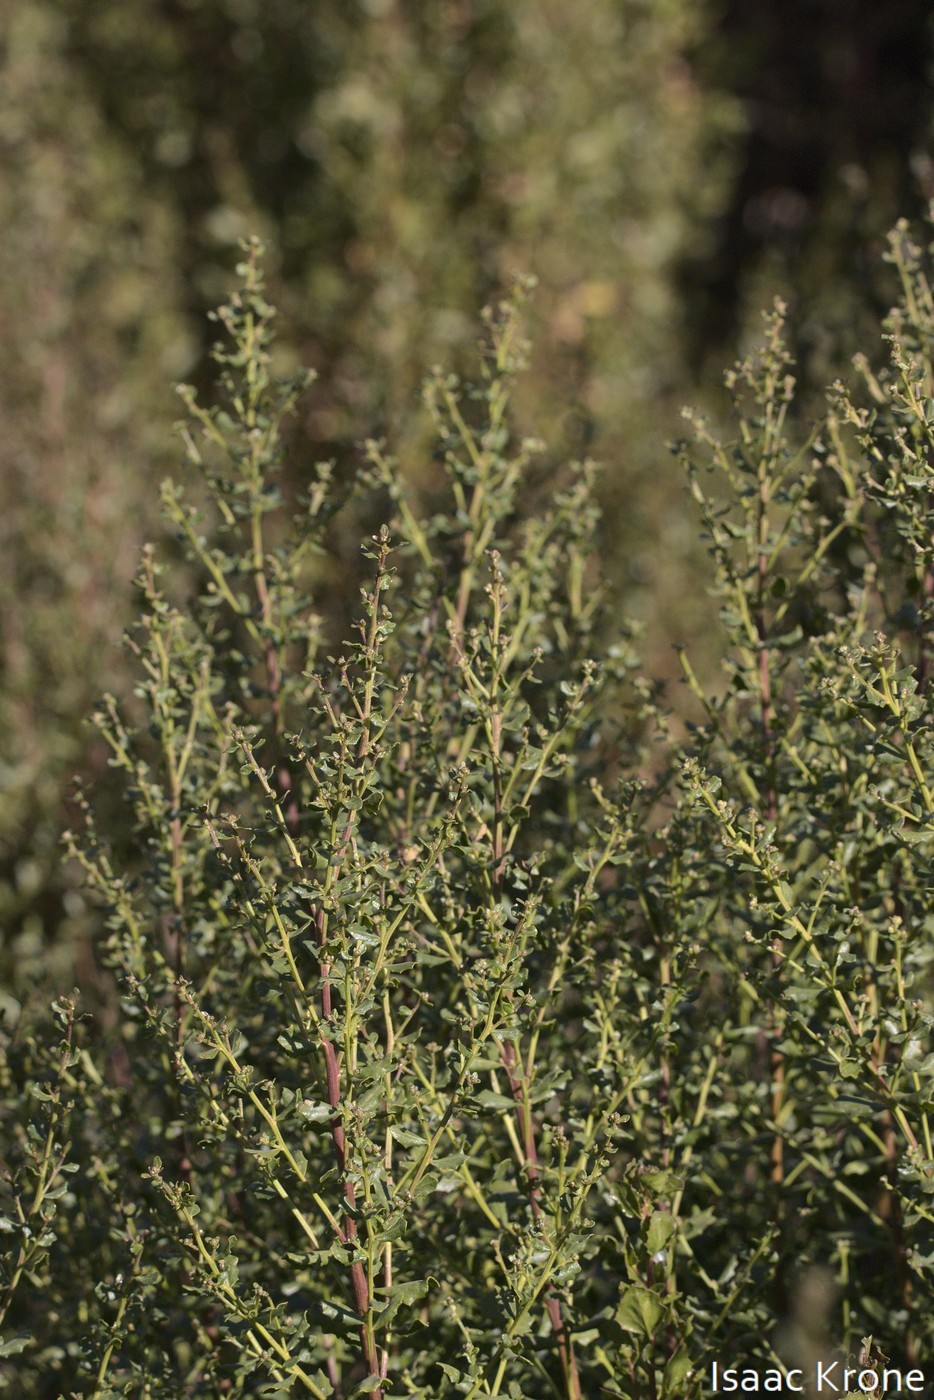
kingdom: Plantae
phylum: Tracheophyta
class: Magnoliopsida
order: Asterales
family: Asteraceae
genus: Baccharis
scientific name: Baccharis pilularis
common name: Coyotebrush
